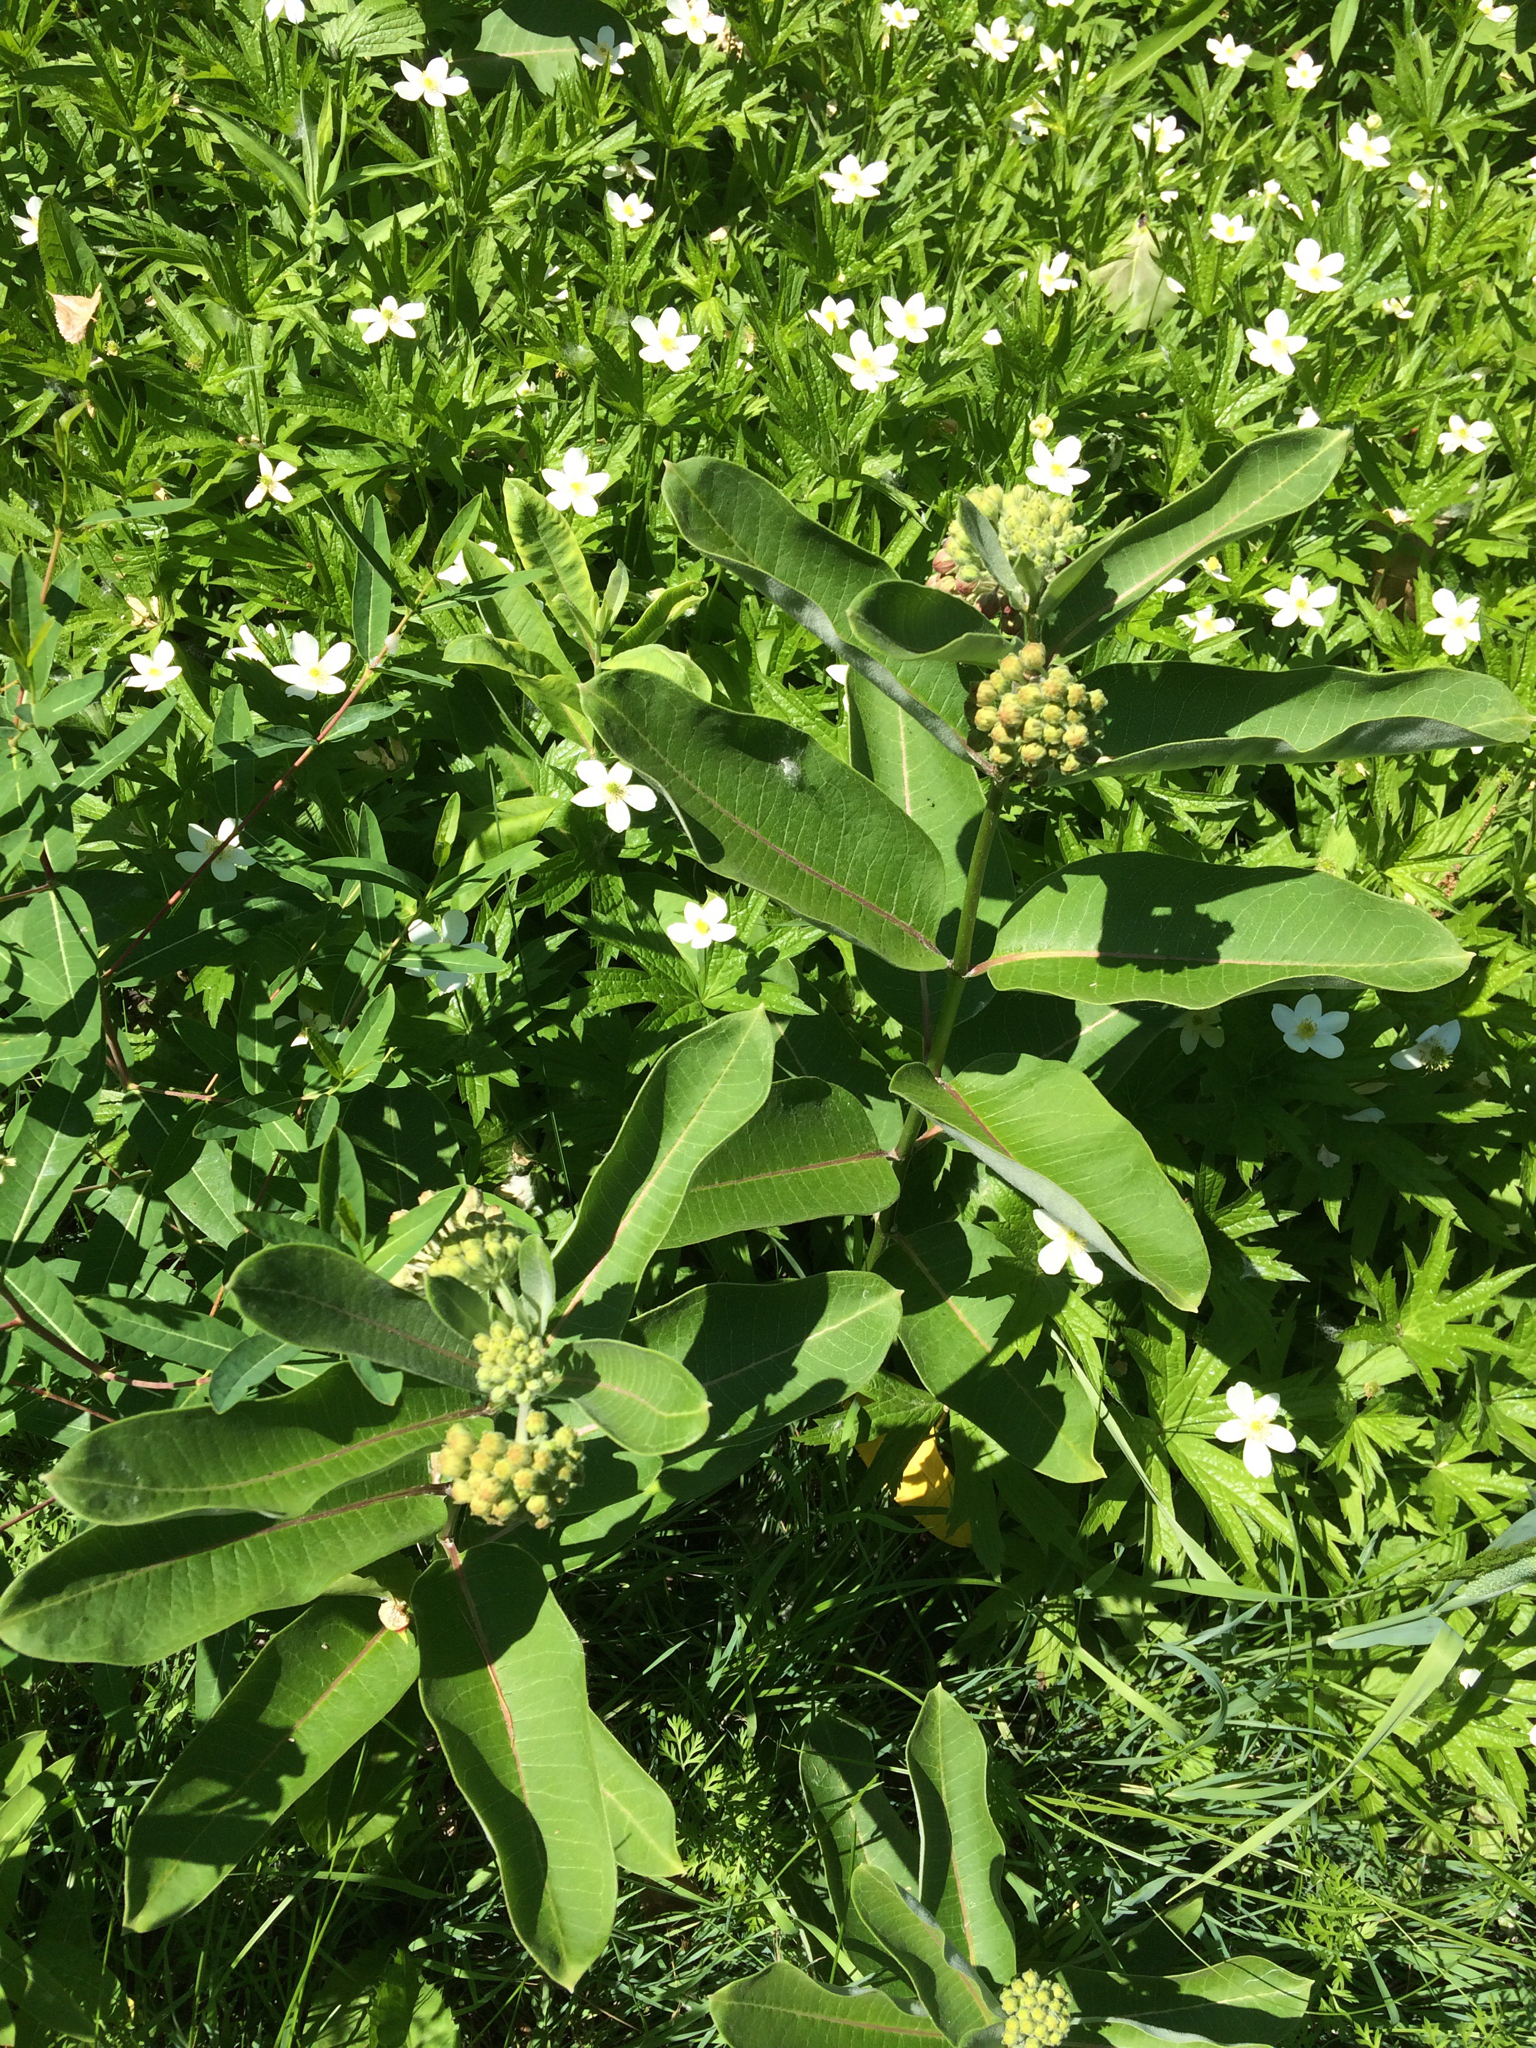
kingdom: Plantae
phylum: Tracheophyta
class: Magnoliopsida
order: Gentianales
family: Apocynaceae
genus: Asclepias
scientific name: Asclepias syriaca
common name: Common milkweed
